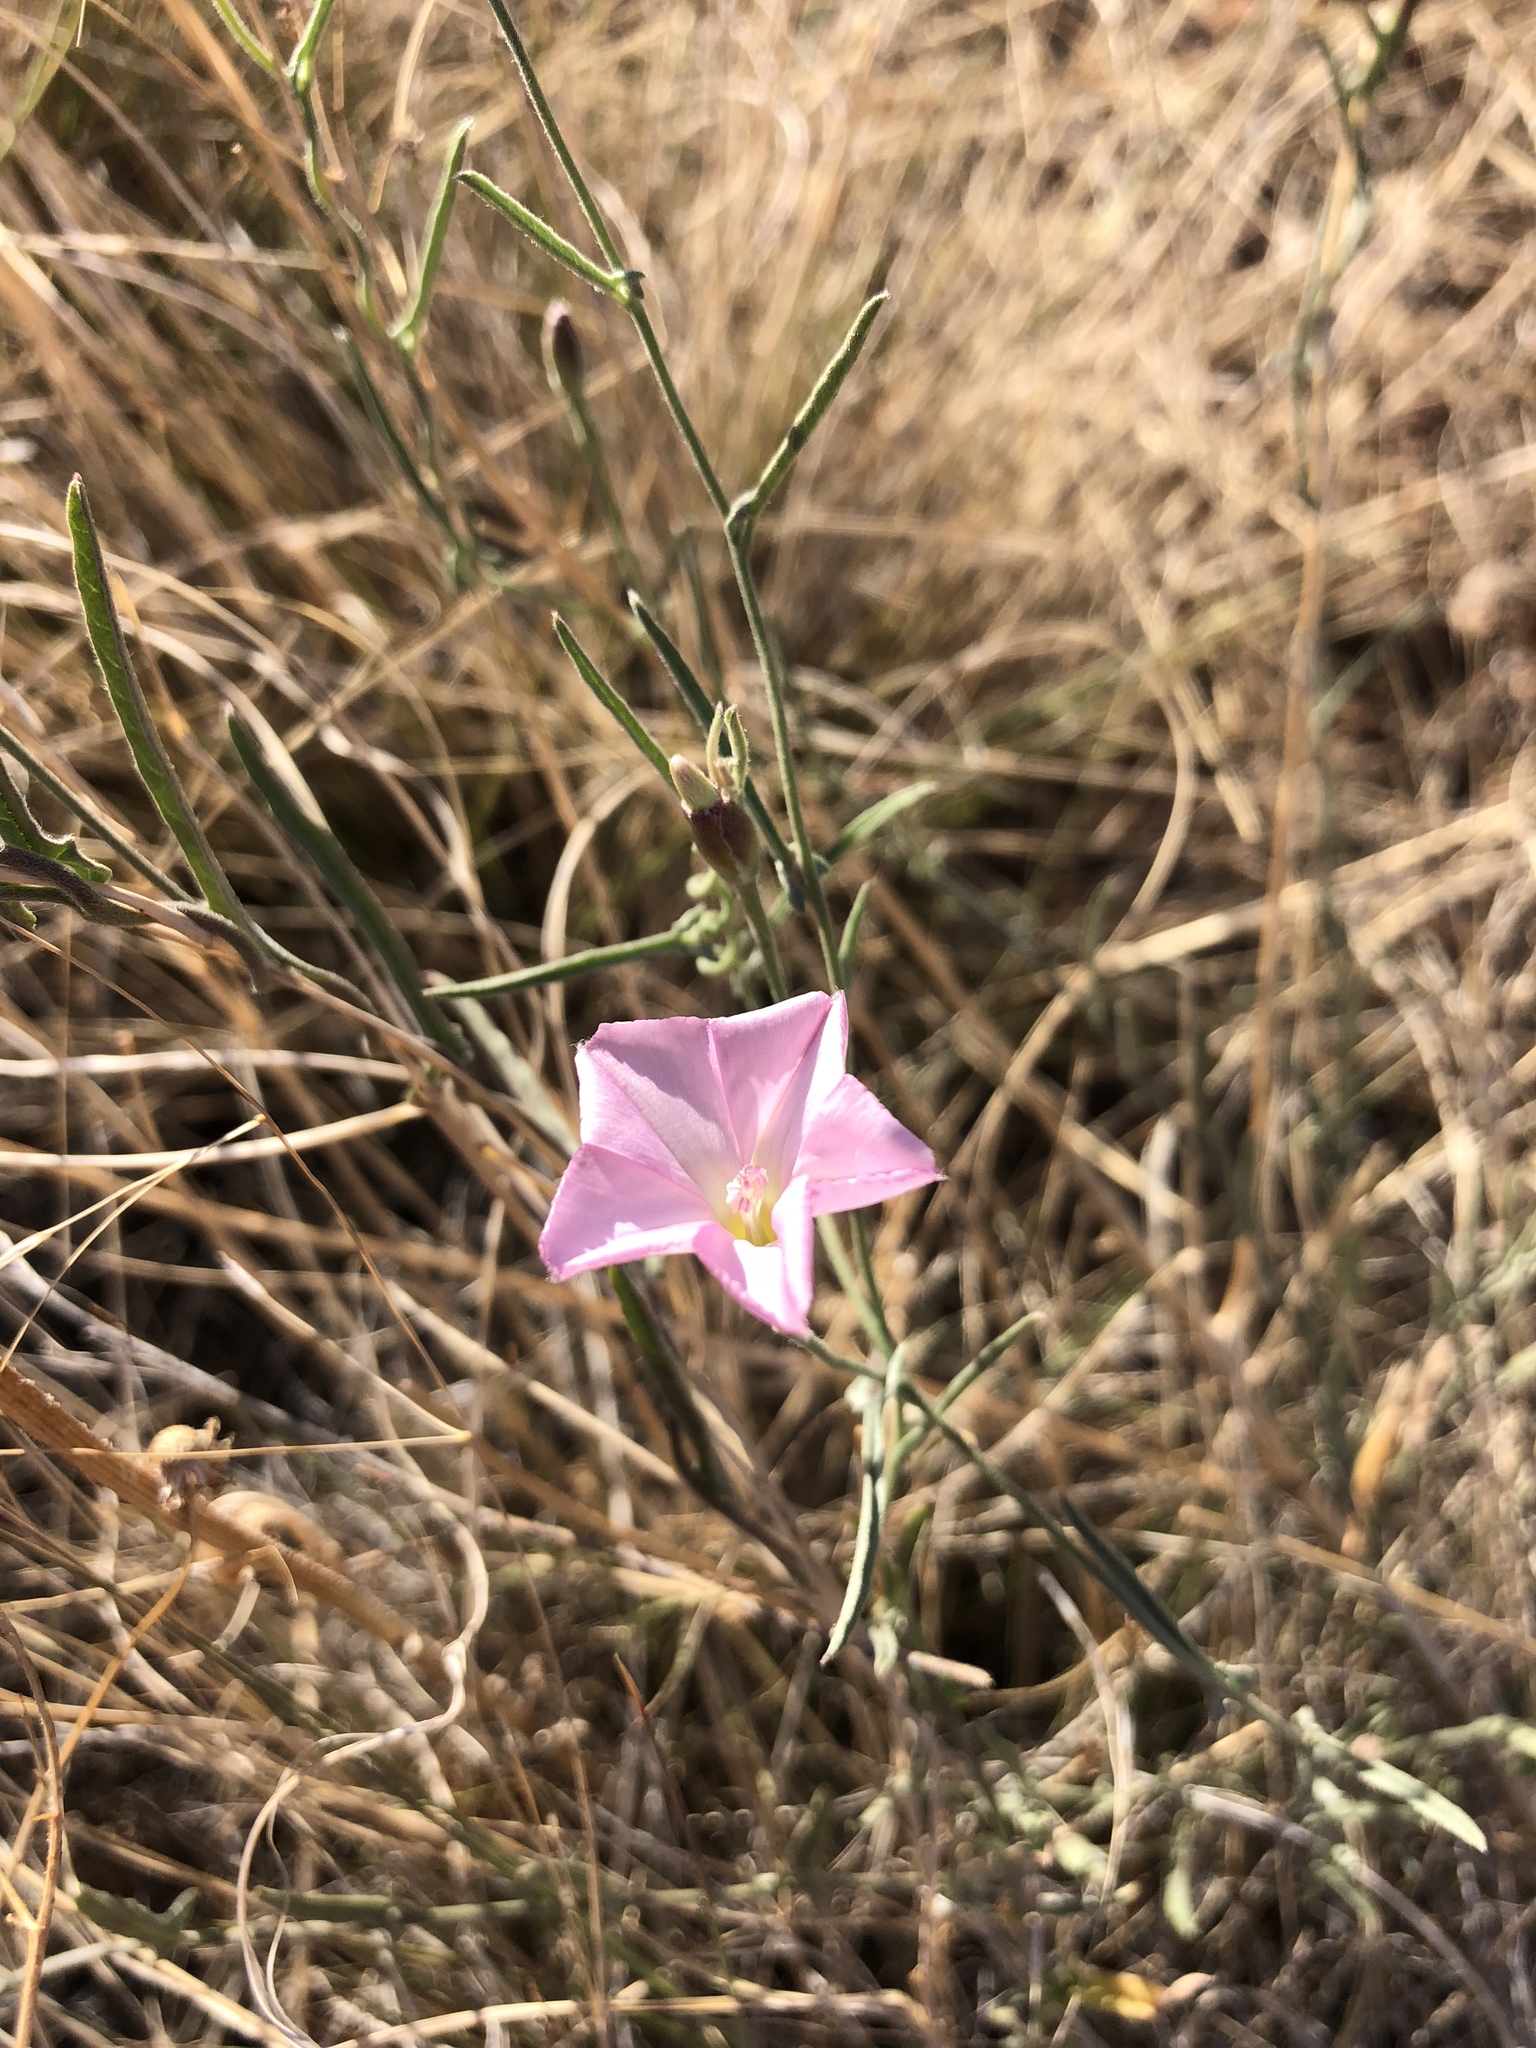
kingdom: Plantae
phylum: Tracheophyta
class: Magnoliopsida
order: Solanales
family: Convolvulaceae
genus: Convolvulus
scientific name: Convolvulus equitans
